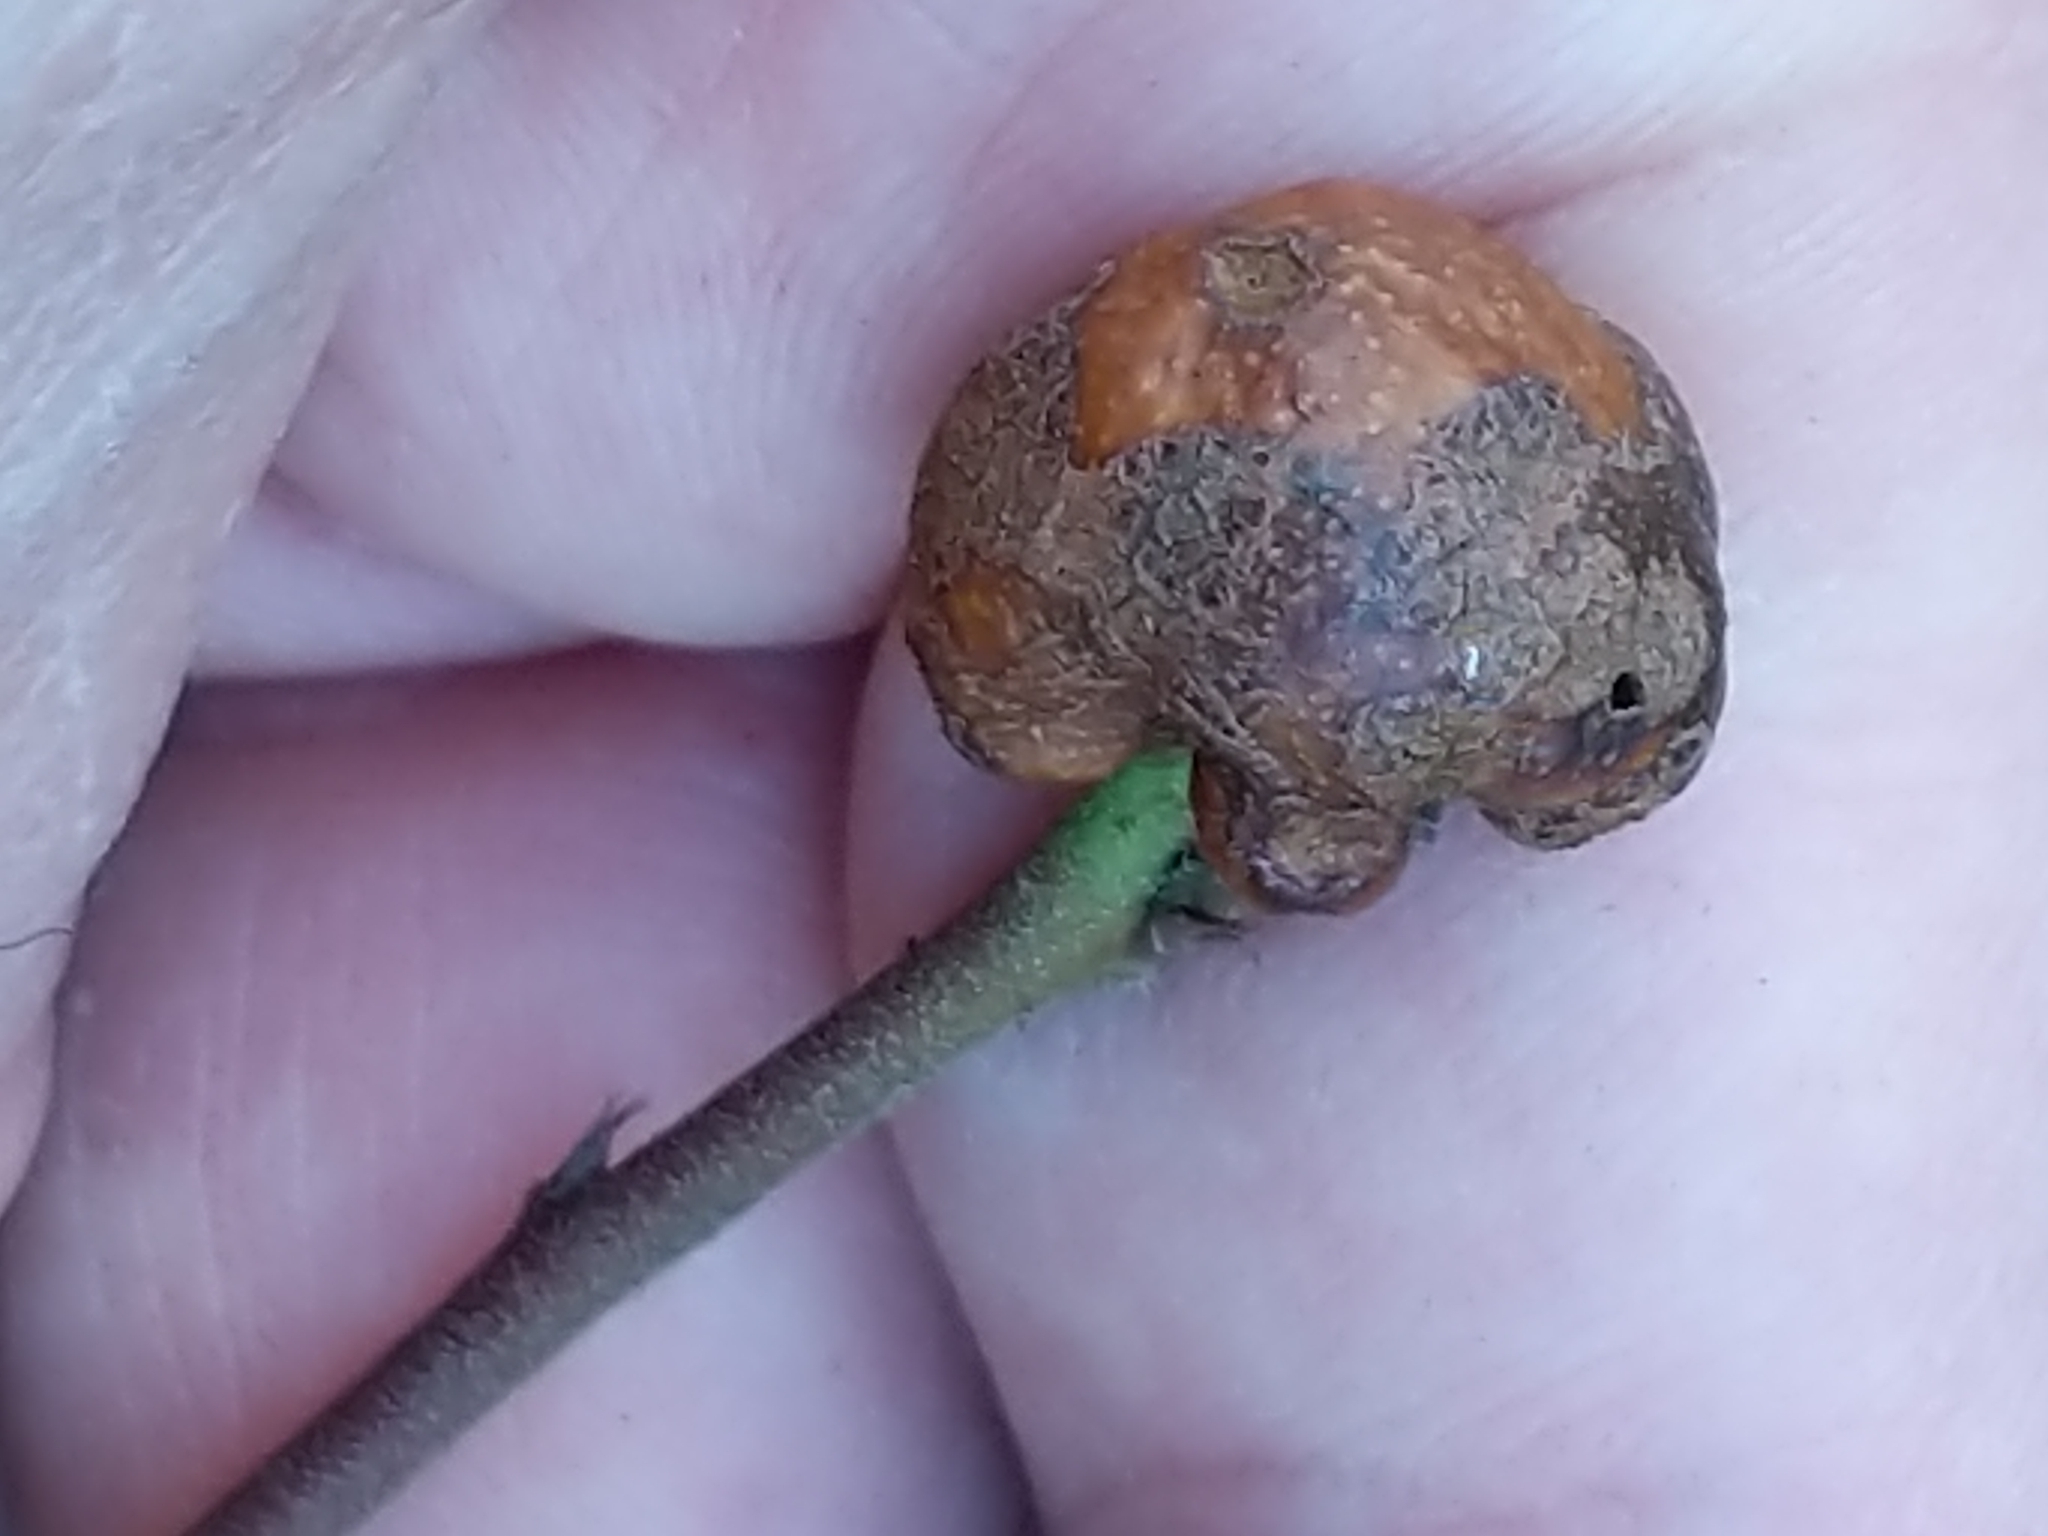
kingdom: Animalia
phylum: Arthropoda
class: Insecta
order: Hymenoptera
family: Pteromalidae
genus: Hemadas
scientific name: Hemadas nubilipennis
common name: Blueberry stem gall wasp
